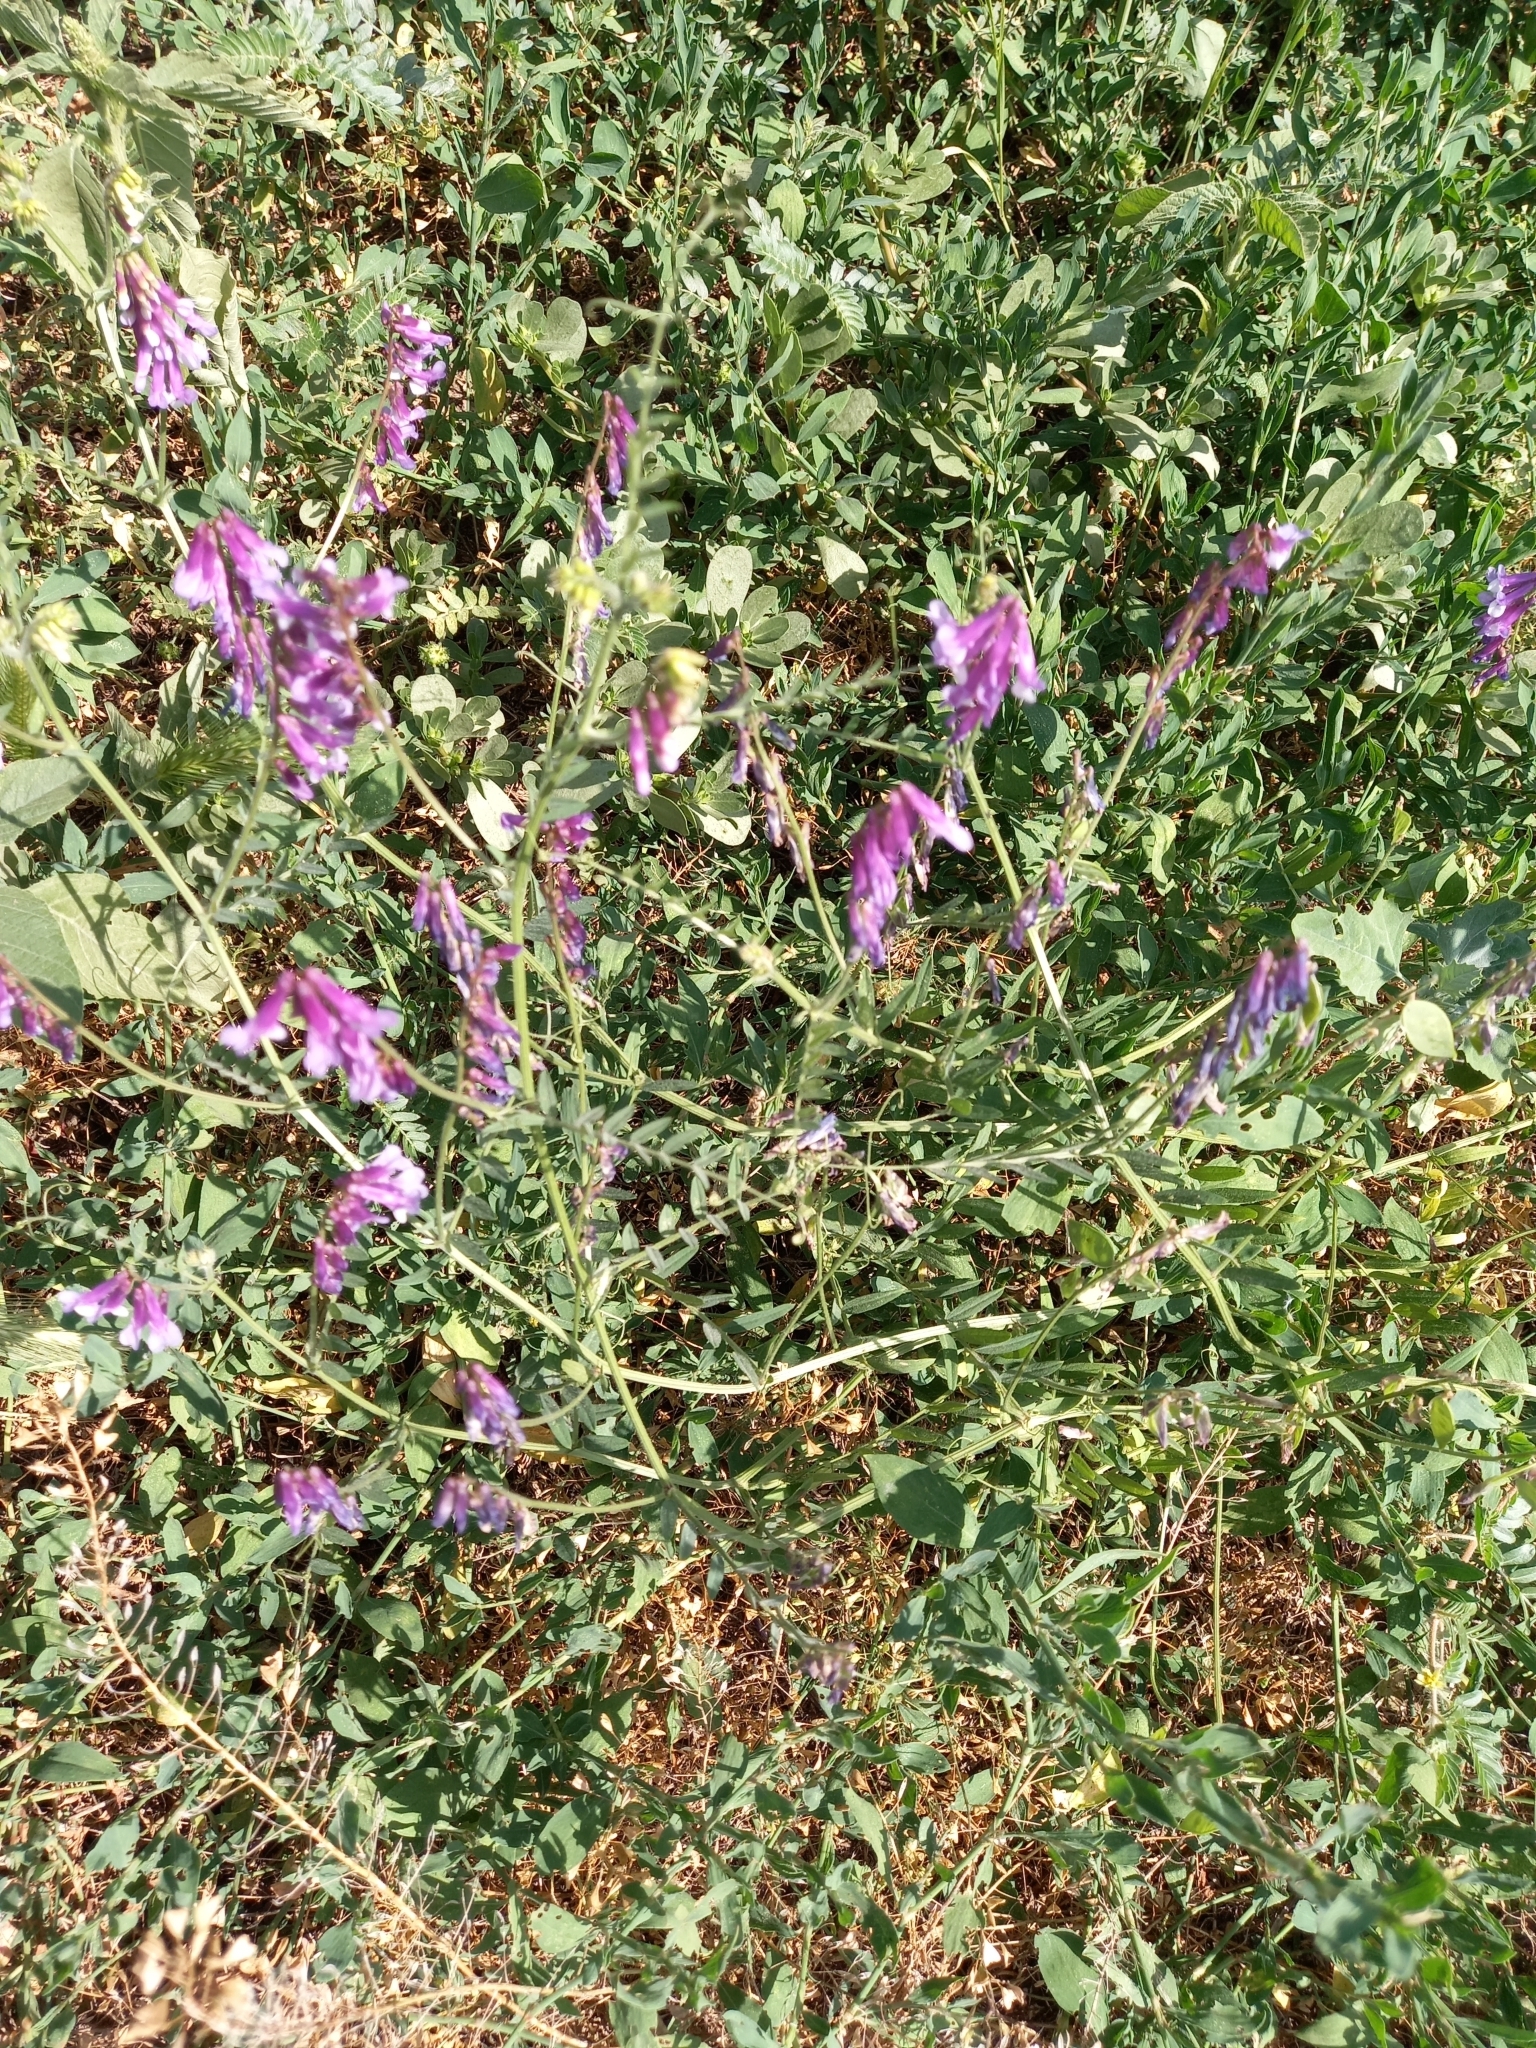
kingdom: Plantae
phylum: Tracheophyta
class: Magnoliopsida
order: Fabales
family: Fabaceae
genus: Vicia
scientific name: Vicia villosa
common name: Fodder vetch
